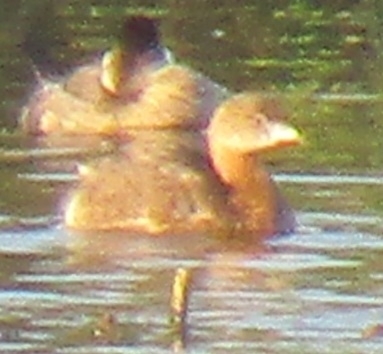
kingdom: Animalia
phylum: Chordata
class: Aves
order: Podicipediformes
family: Podicipedidae
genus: Podilymbus
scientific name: Podilymbus podiceps
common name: Pied-billed grebe
